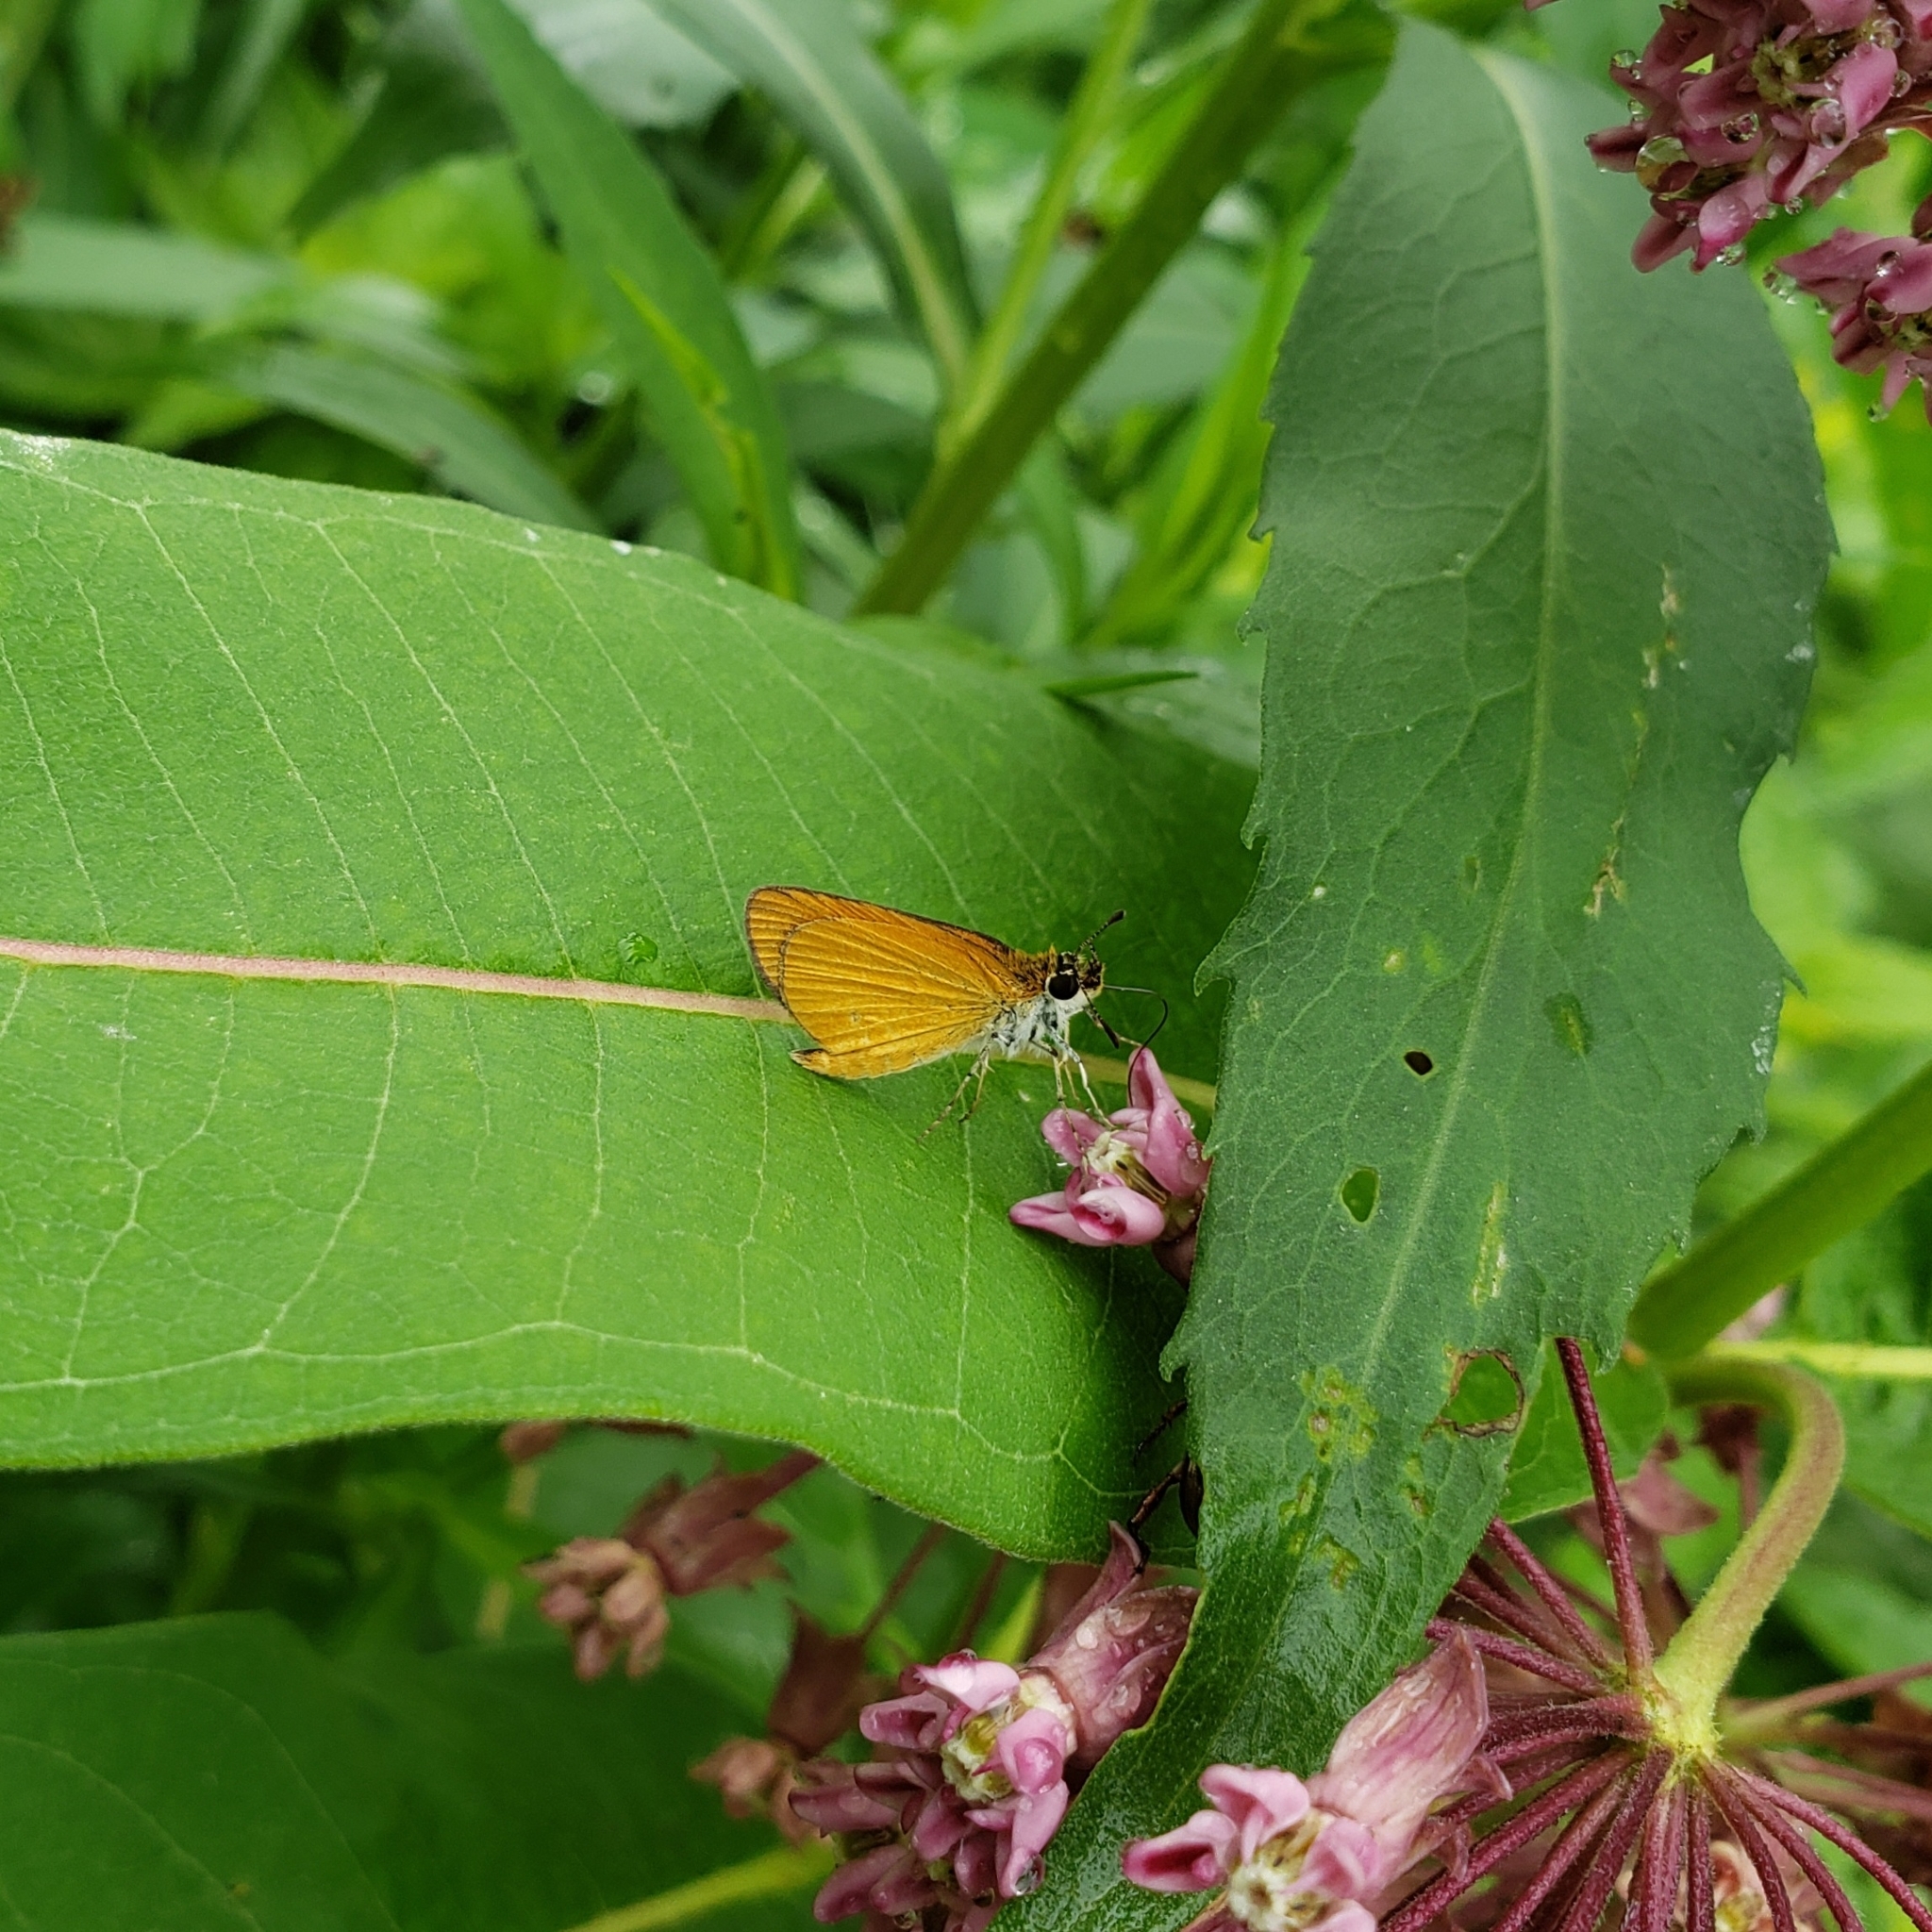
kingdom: Animalia
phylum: Arthropoda
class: Insecta
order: Lepidoptera
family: Hesperiidae
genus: Ancyloxypha
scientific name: Ancyloxypha numitor
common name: Least skipper
